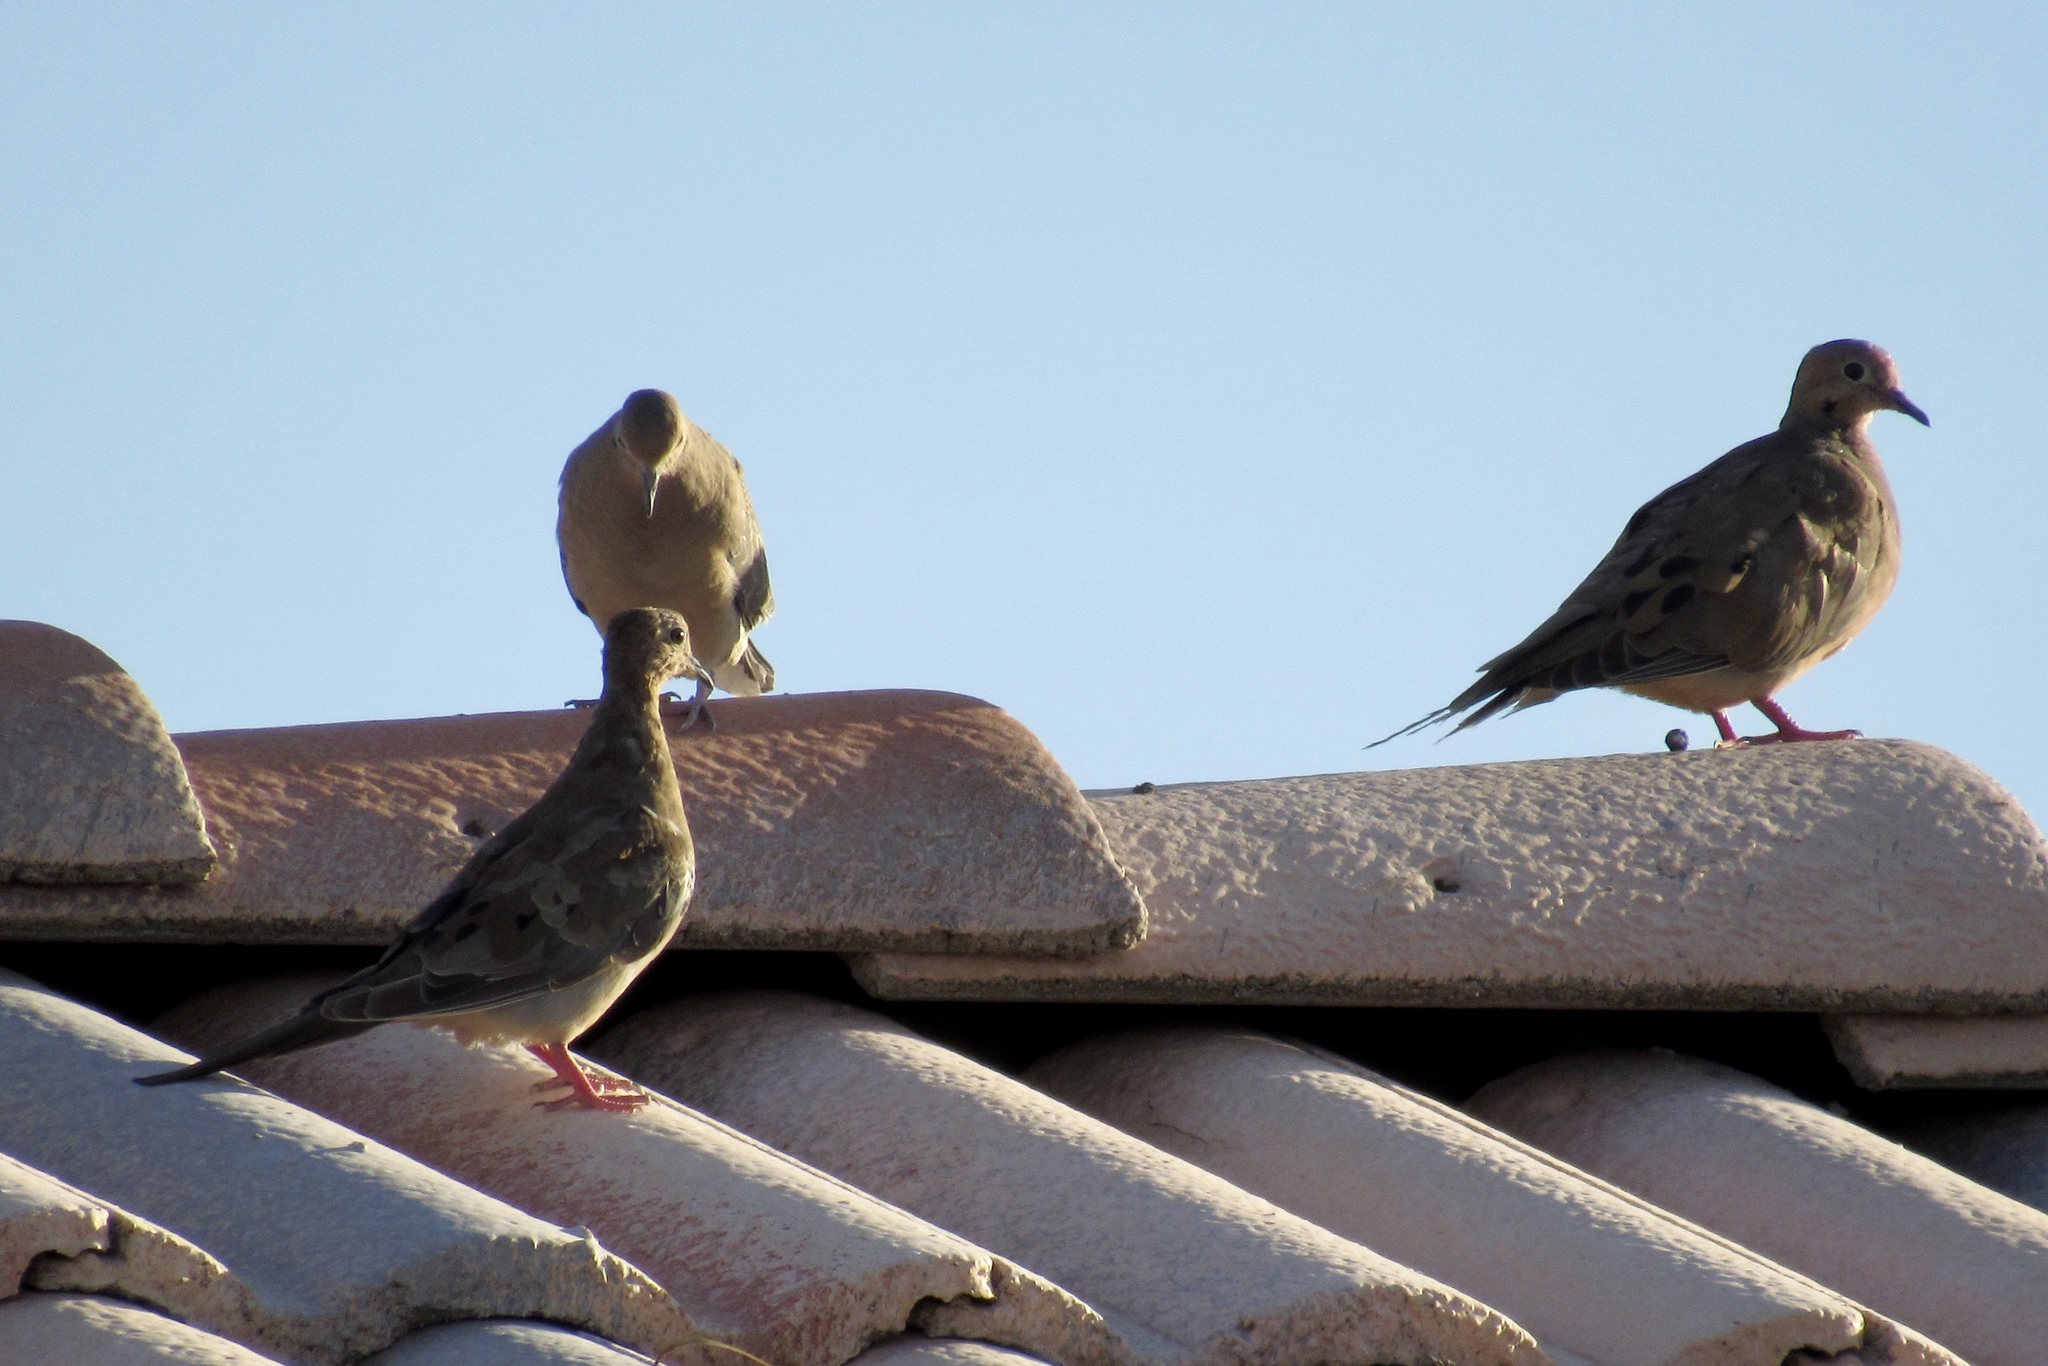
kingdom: Animalia
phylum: Chordata
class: Aves
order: Columbiformes
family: Columbidae
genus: Zenaida
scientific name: Zenaida macroura
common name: Mourning dove
